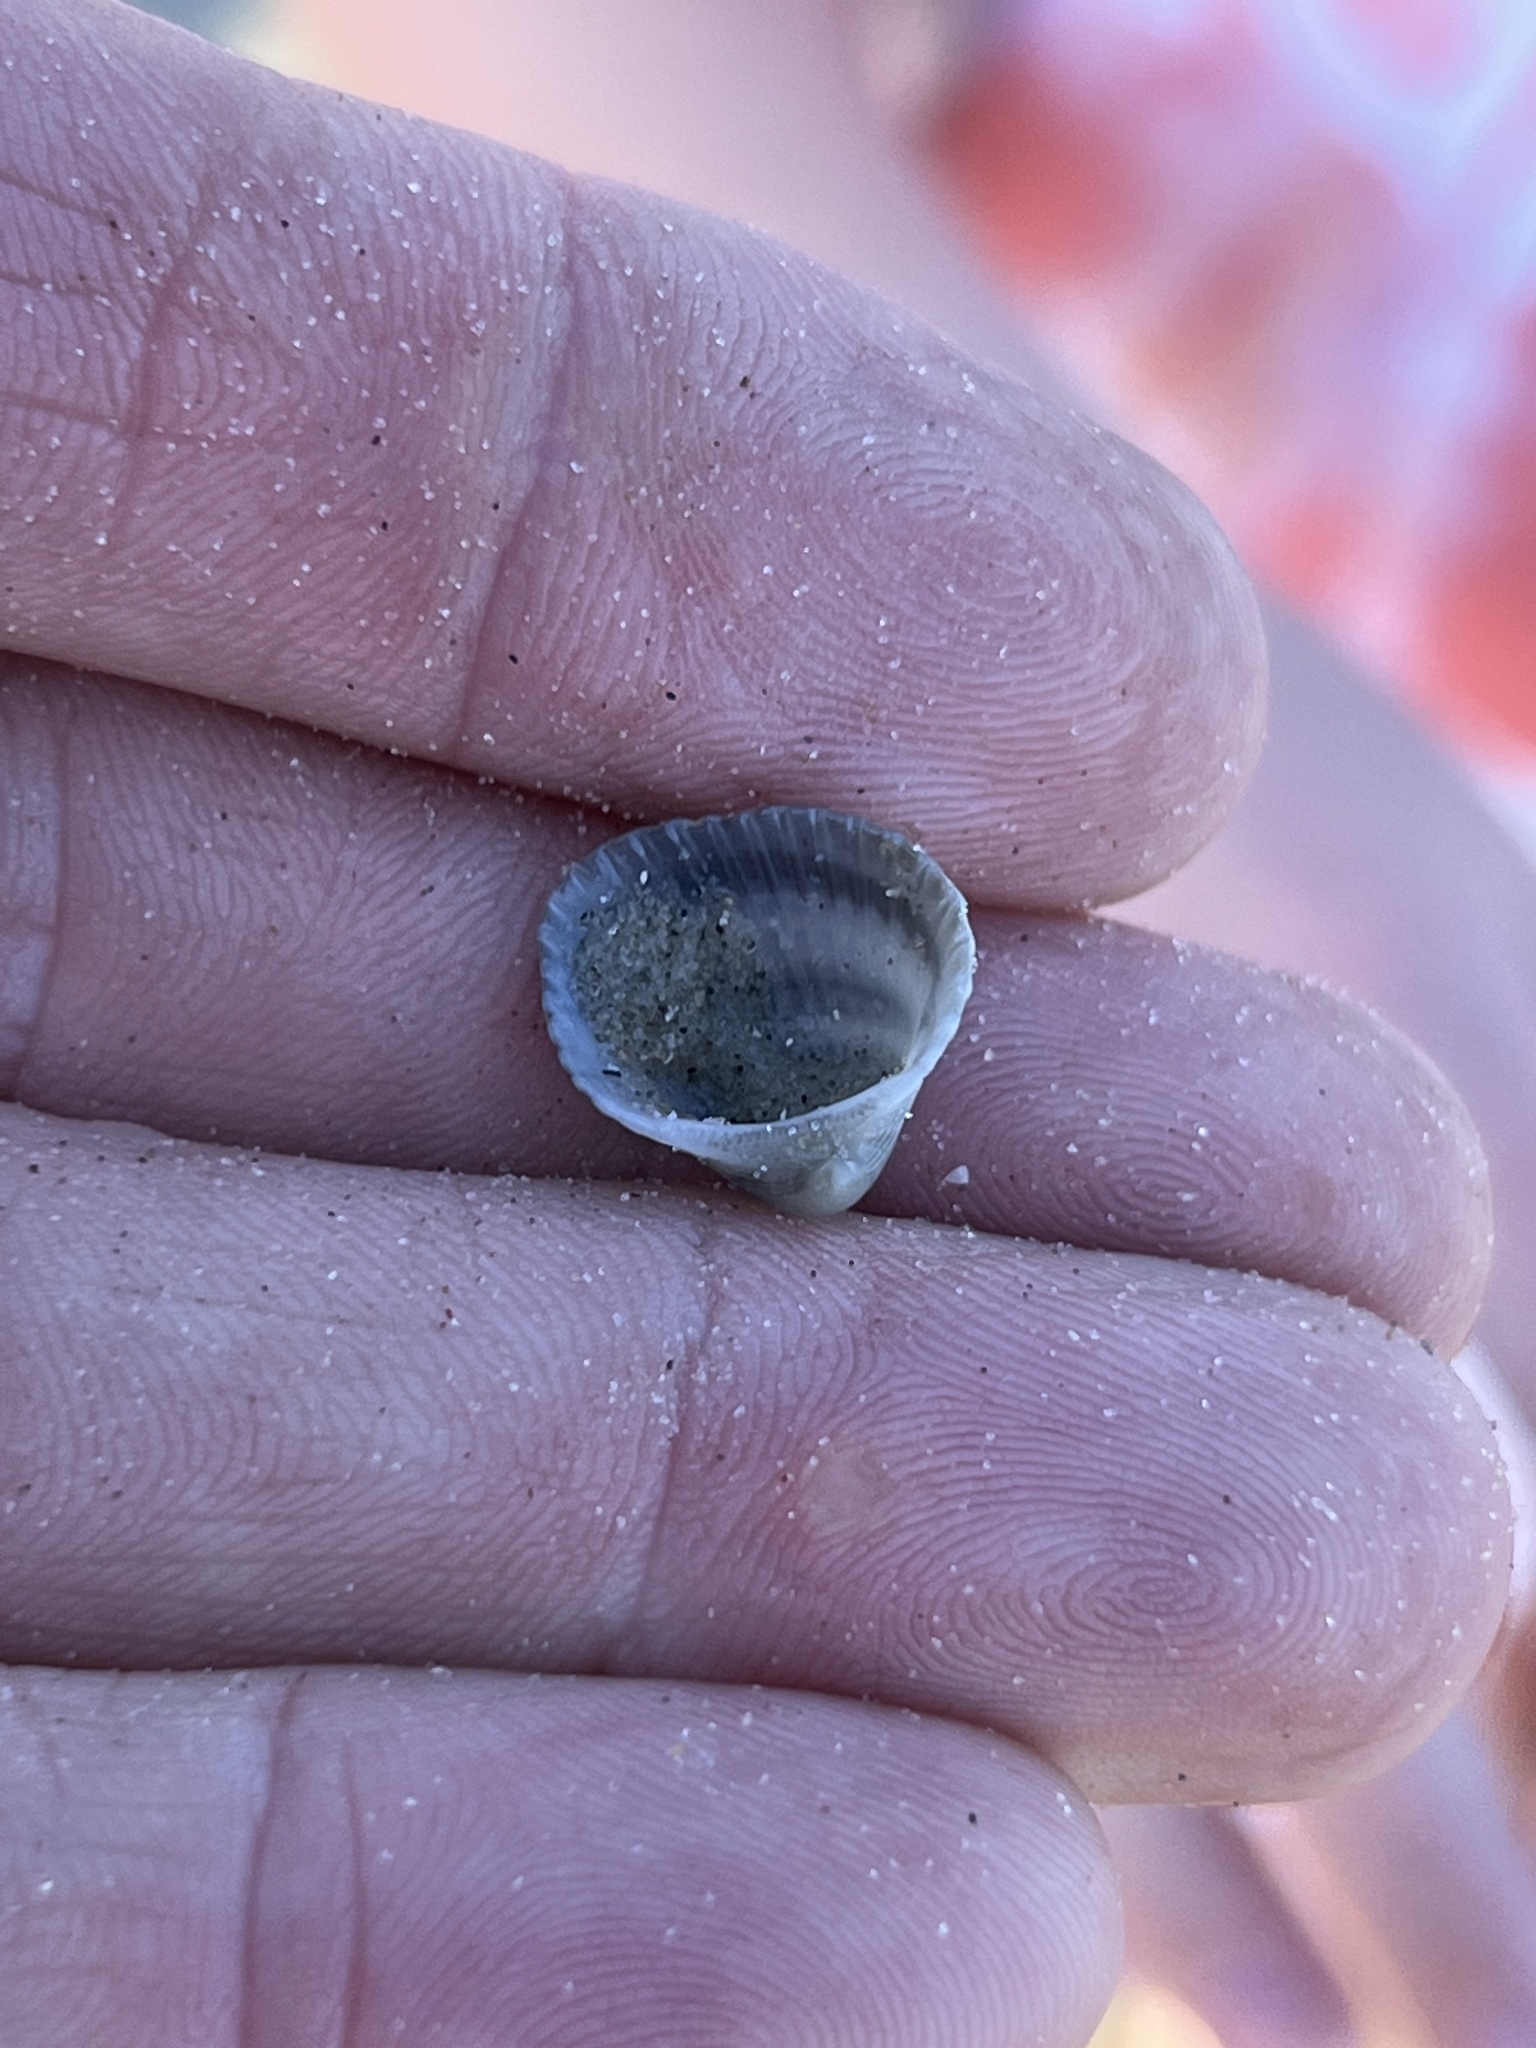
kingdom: Animalia
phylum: Mollusca
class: Bivalvia
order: Arcida
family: Arcidae
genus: Anadara
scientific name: Anadara chemnitzii
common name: Chemnitz's triangular ark
